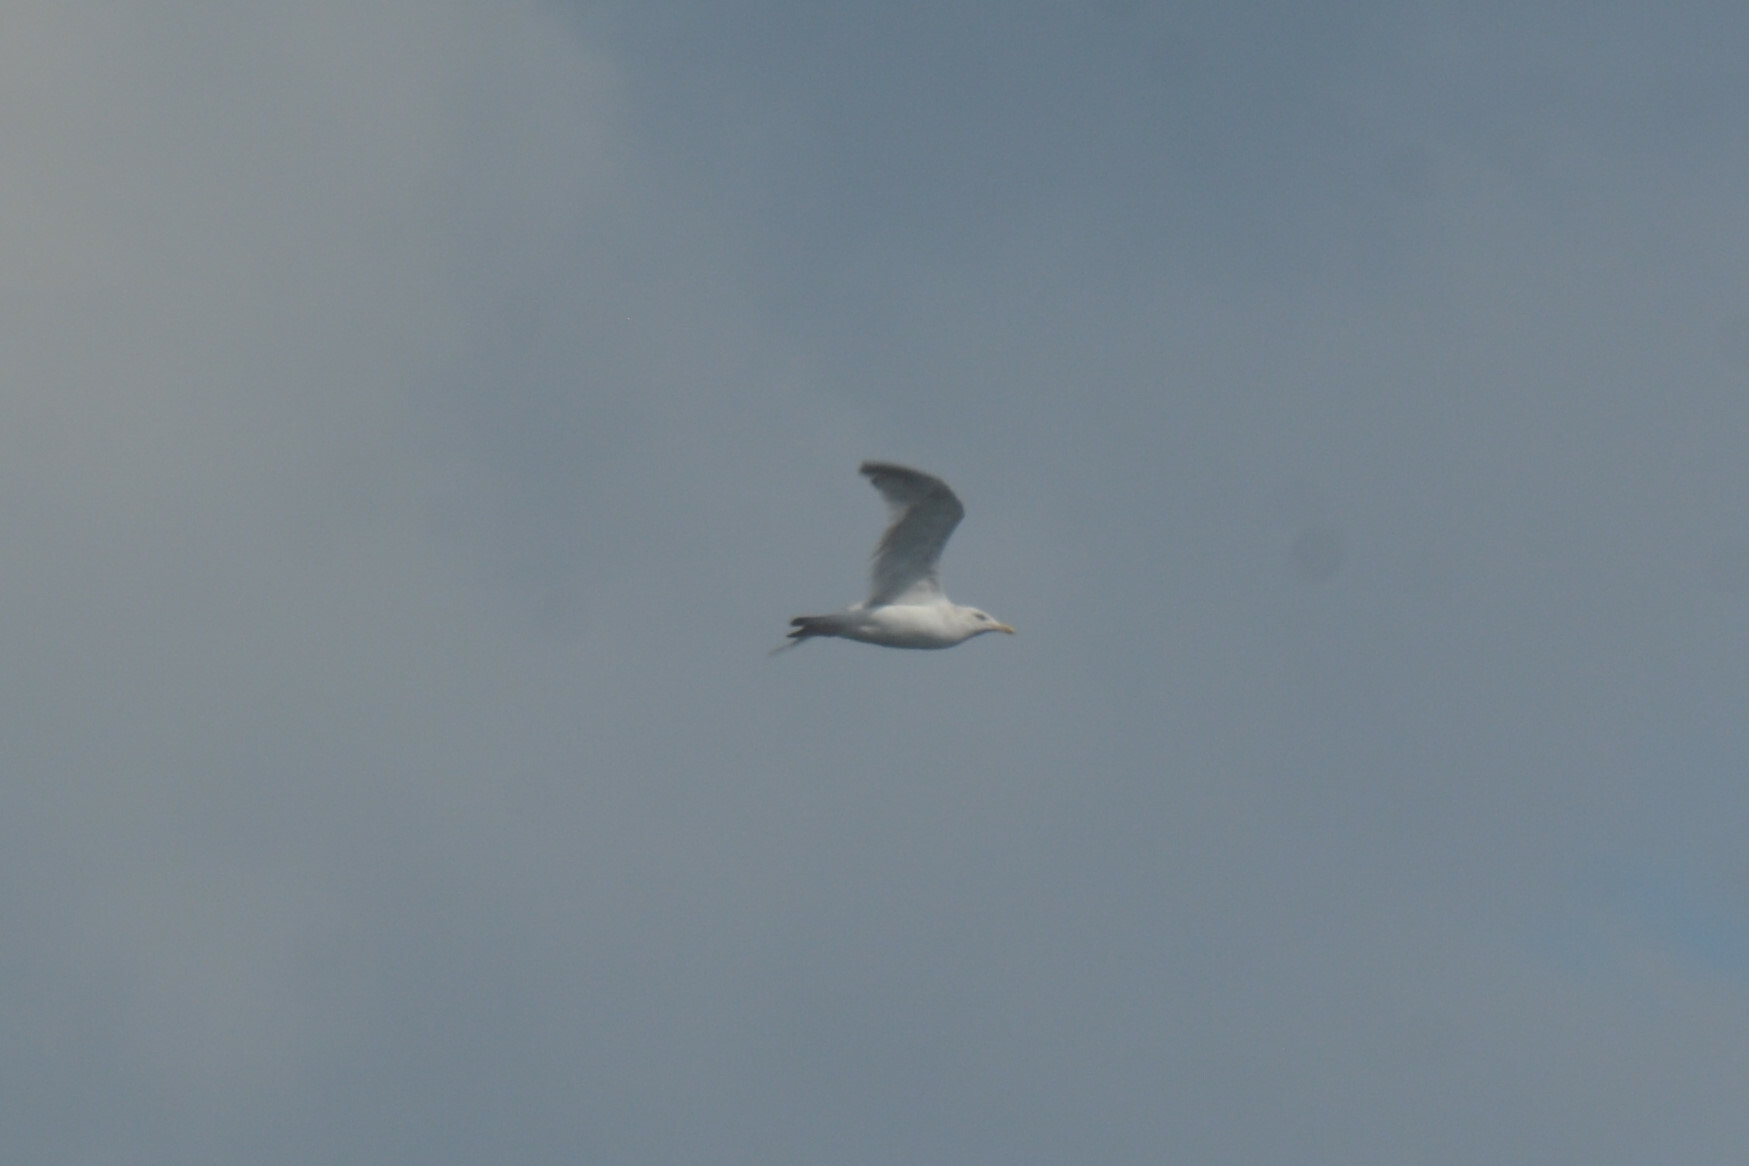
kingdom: Animalia
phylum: Chordata
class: Aves
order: Charadriiformes
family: Laridae
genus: Larus
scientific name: Larus argentatus
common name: Herring gull
